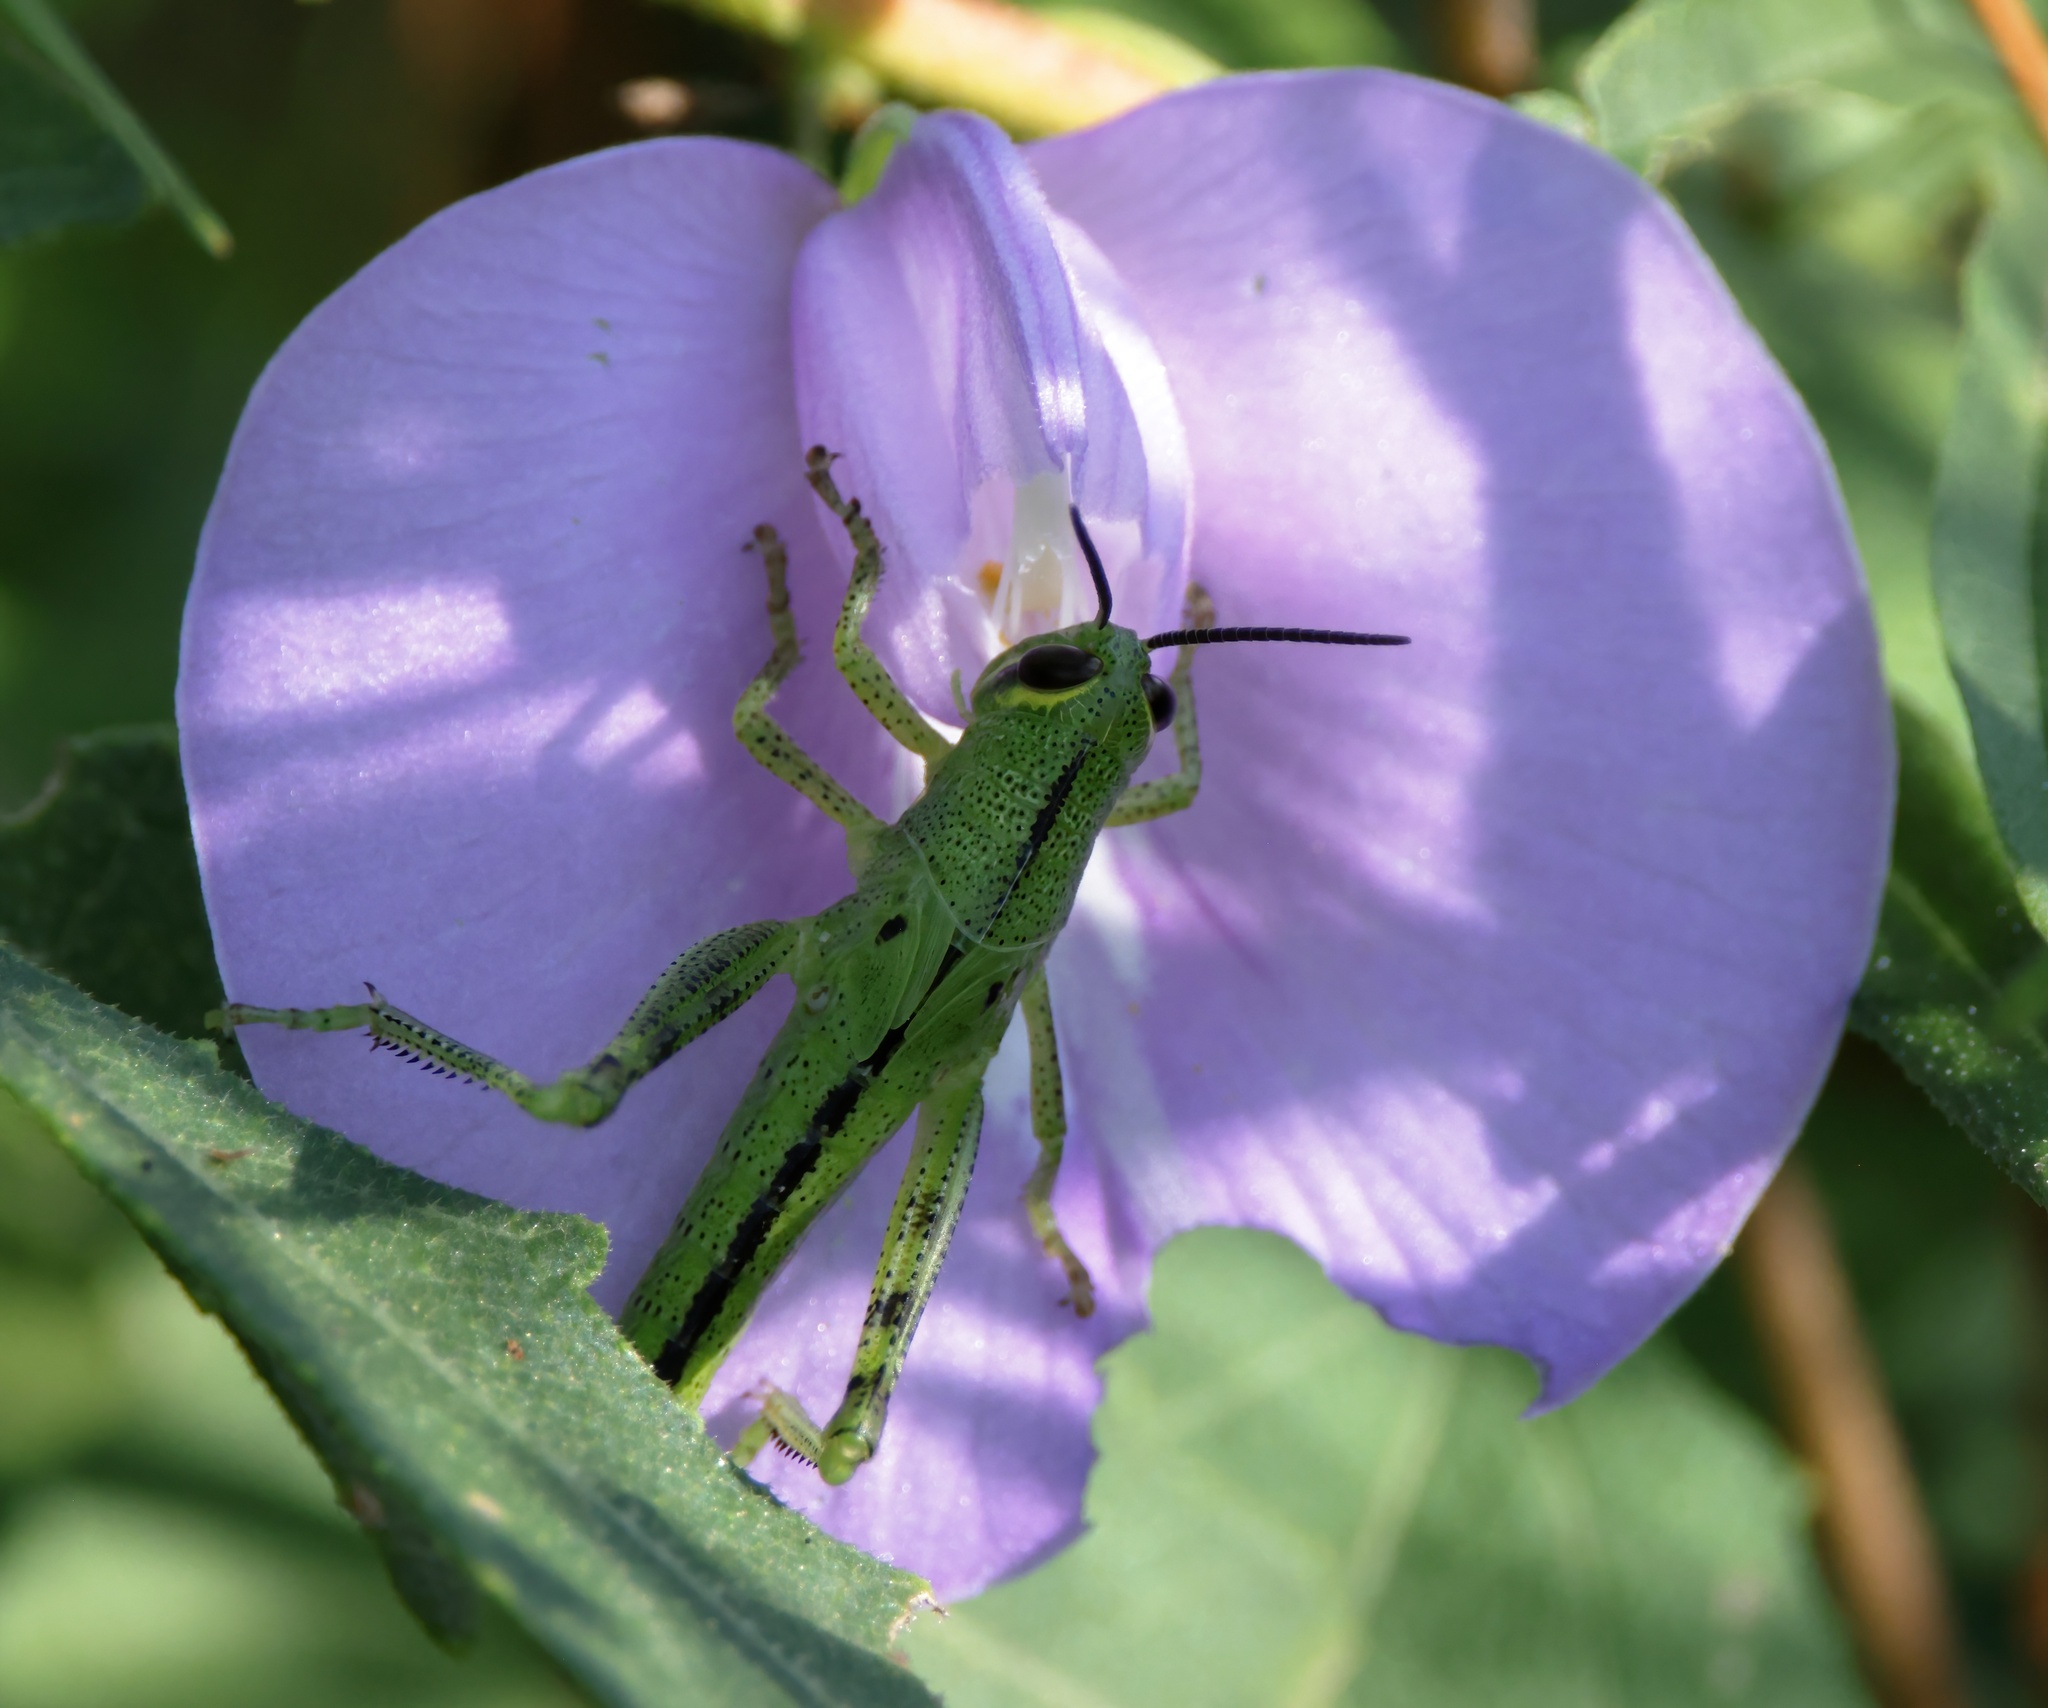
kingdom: Animalia
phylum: Arthropoda
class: Insecta
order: Orthoptera
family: Acrididae
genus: Schistocerca
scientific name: Schistocerca americana
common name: American bird locust
